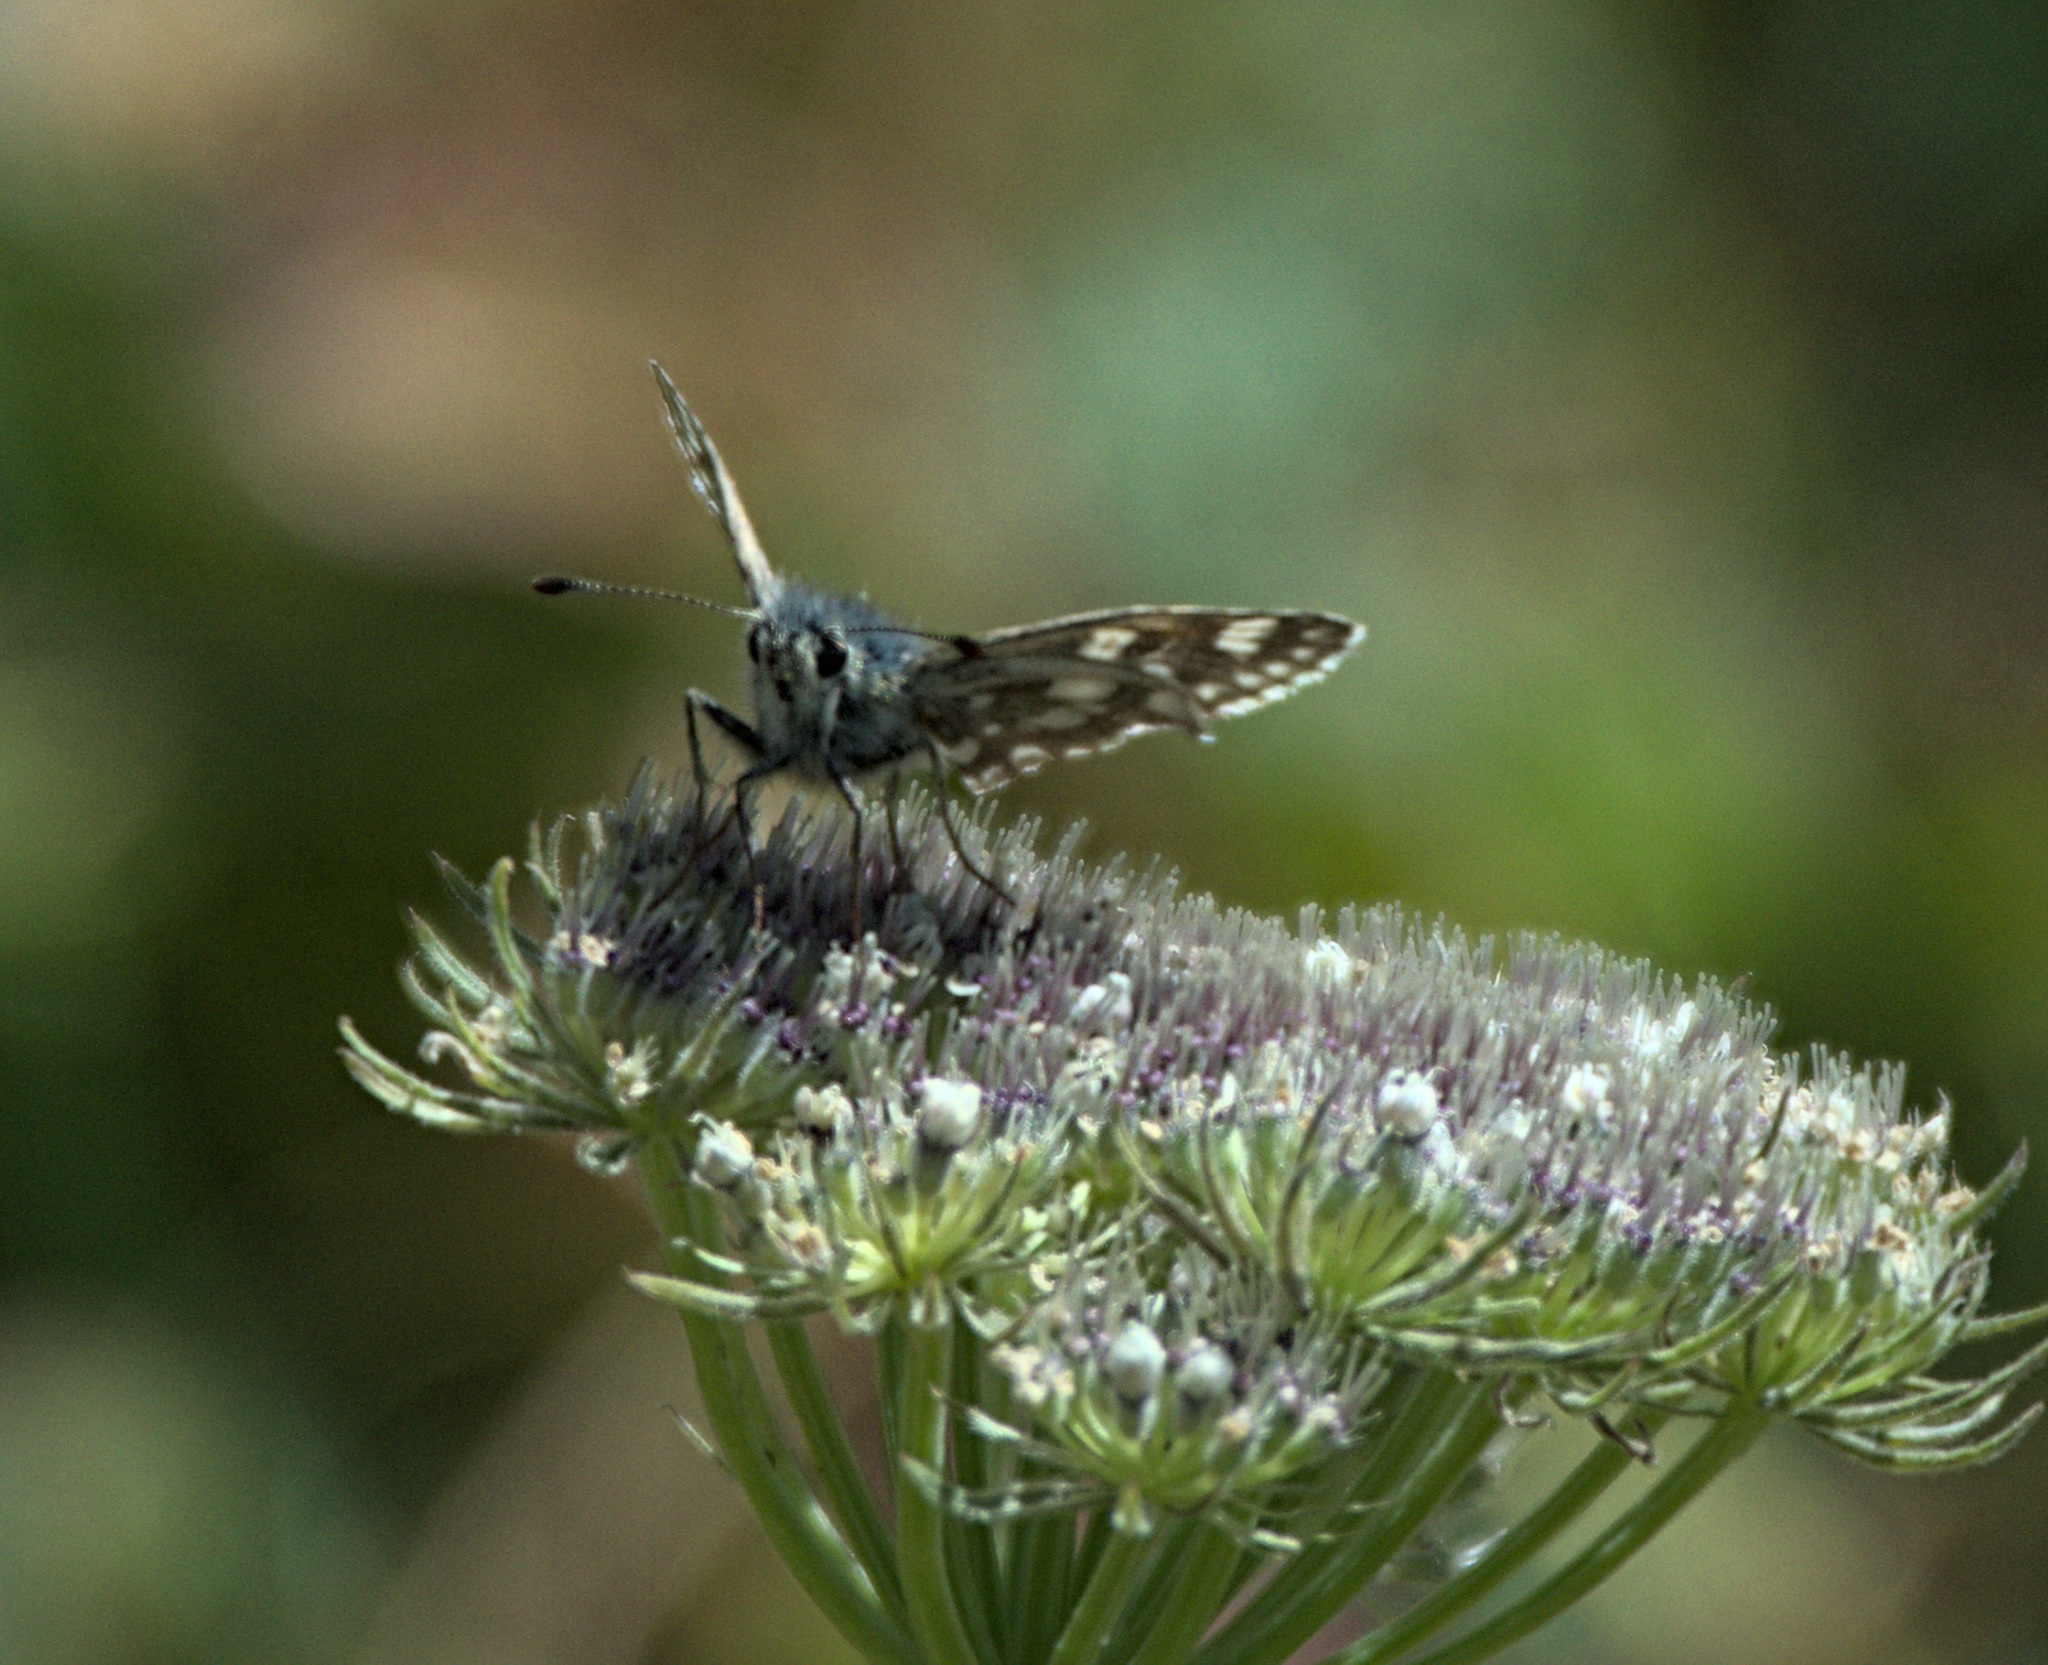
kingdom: Animalia
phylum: Arthropoda
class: Insecta
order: Lepidoptera
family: Hesperiidae
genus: Syrichtus
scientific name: Syrichtus tessellum
